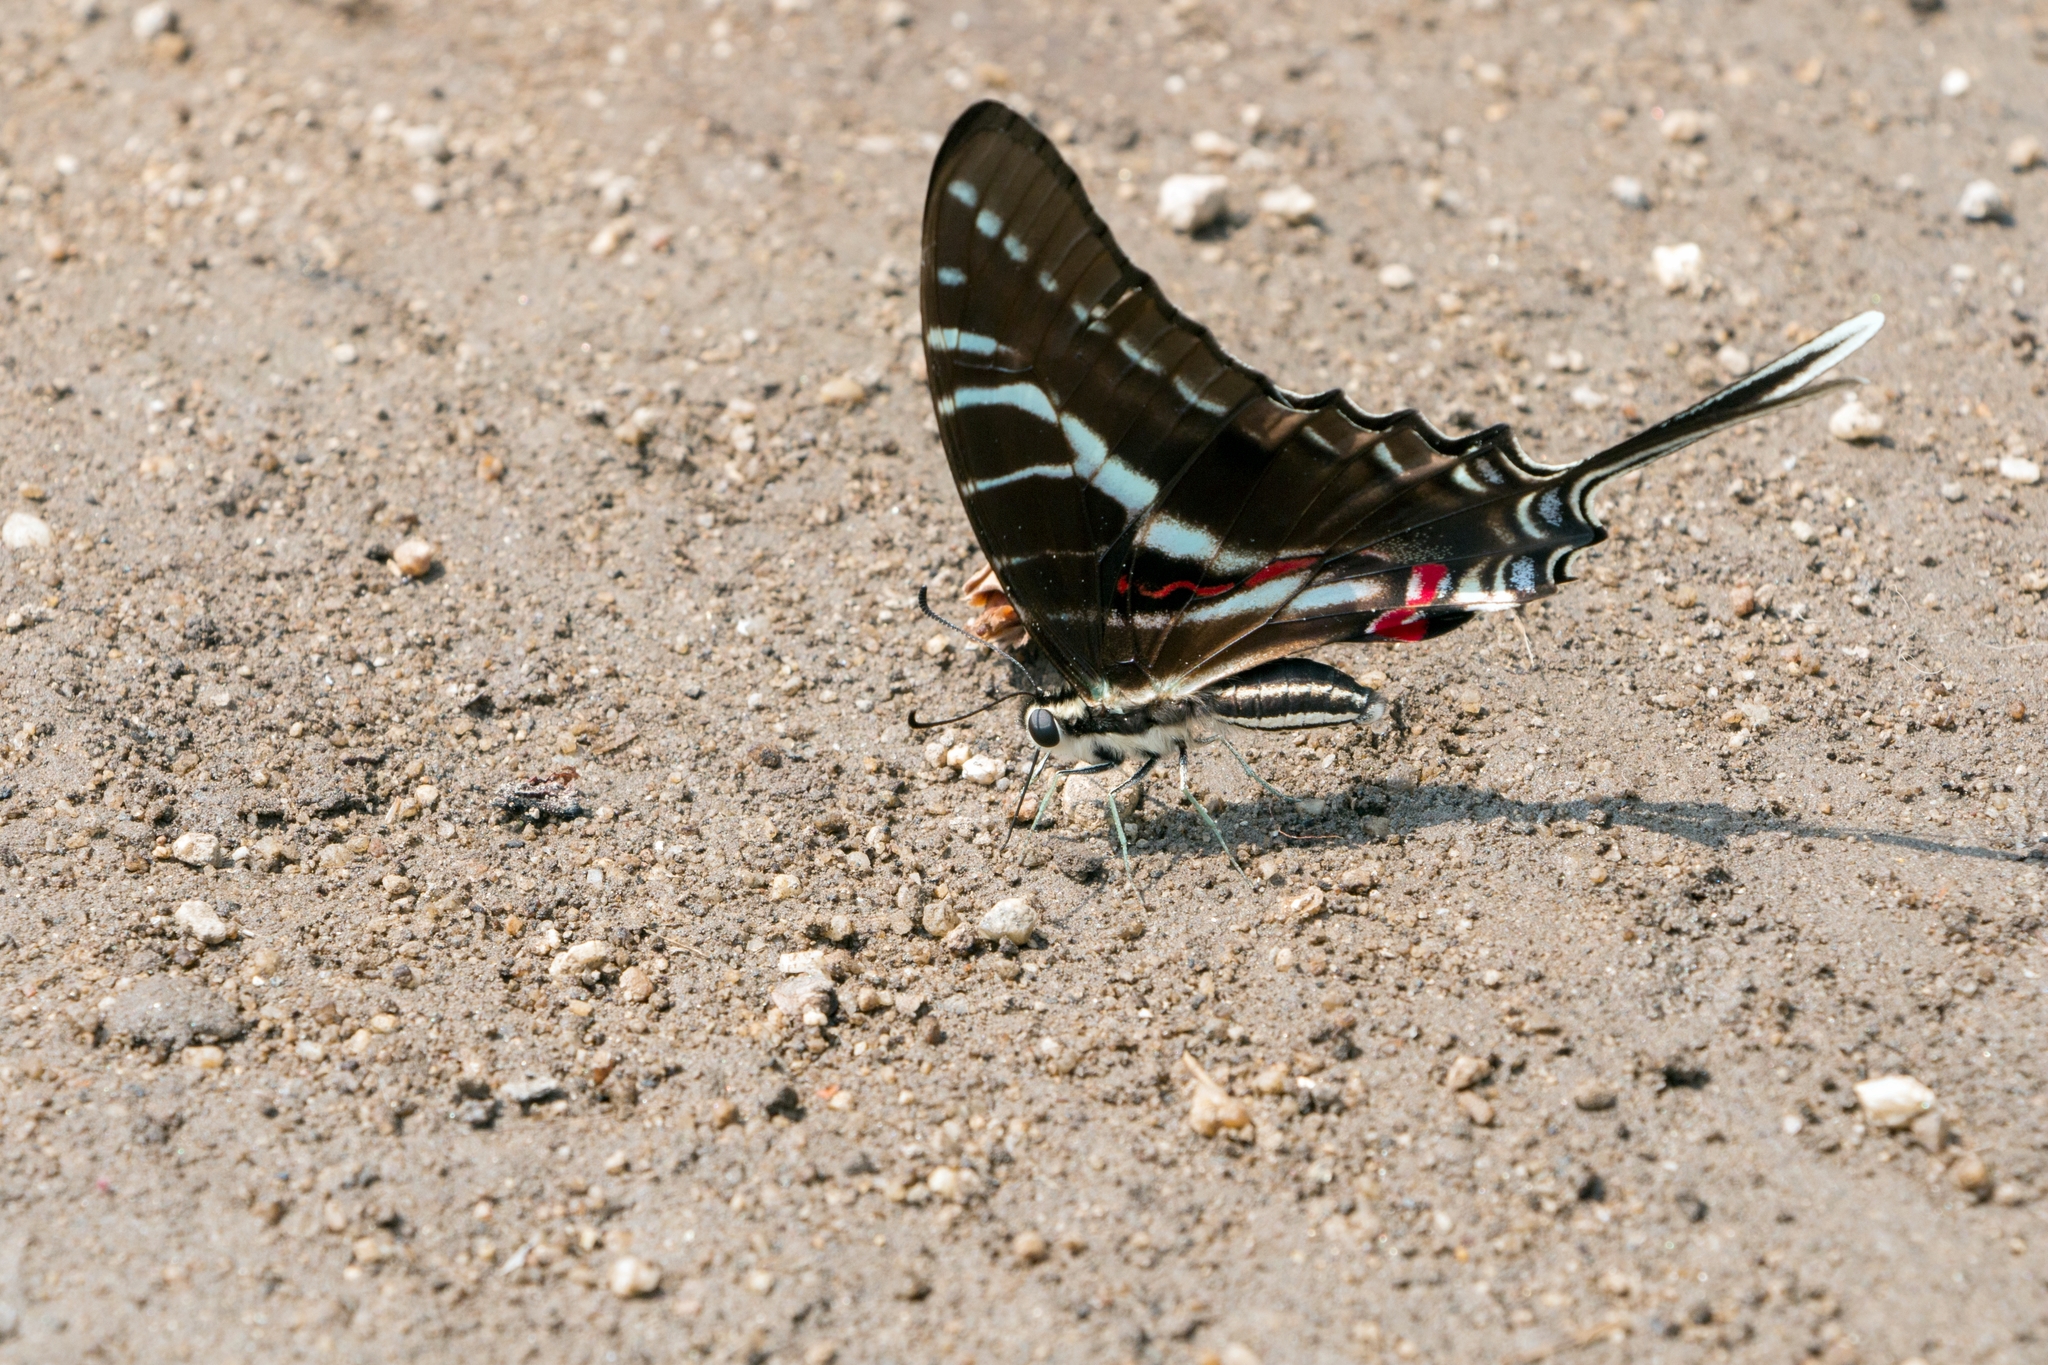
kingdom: Animalia
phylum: Arthropoda
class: Insecta
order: Lepidoptera
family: Papilionidae
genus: Protographium
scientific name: Protographium philolaus
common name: Dark zebra swallowtail
